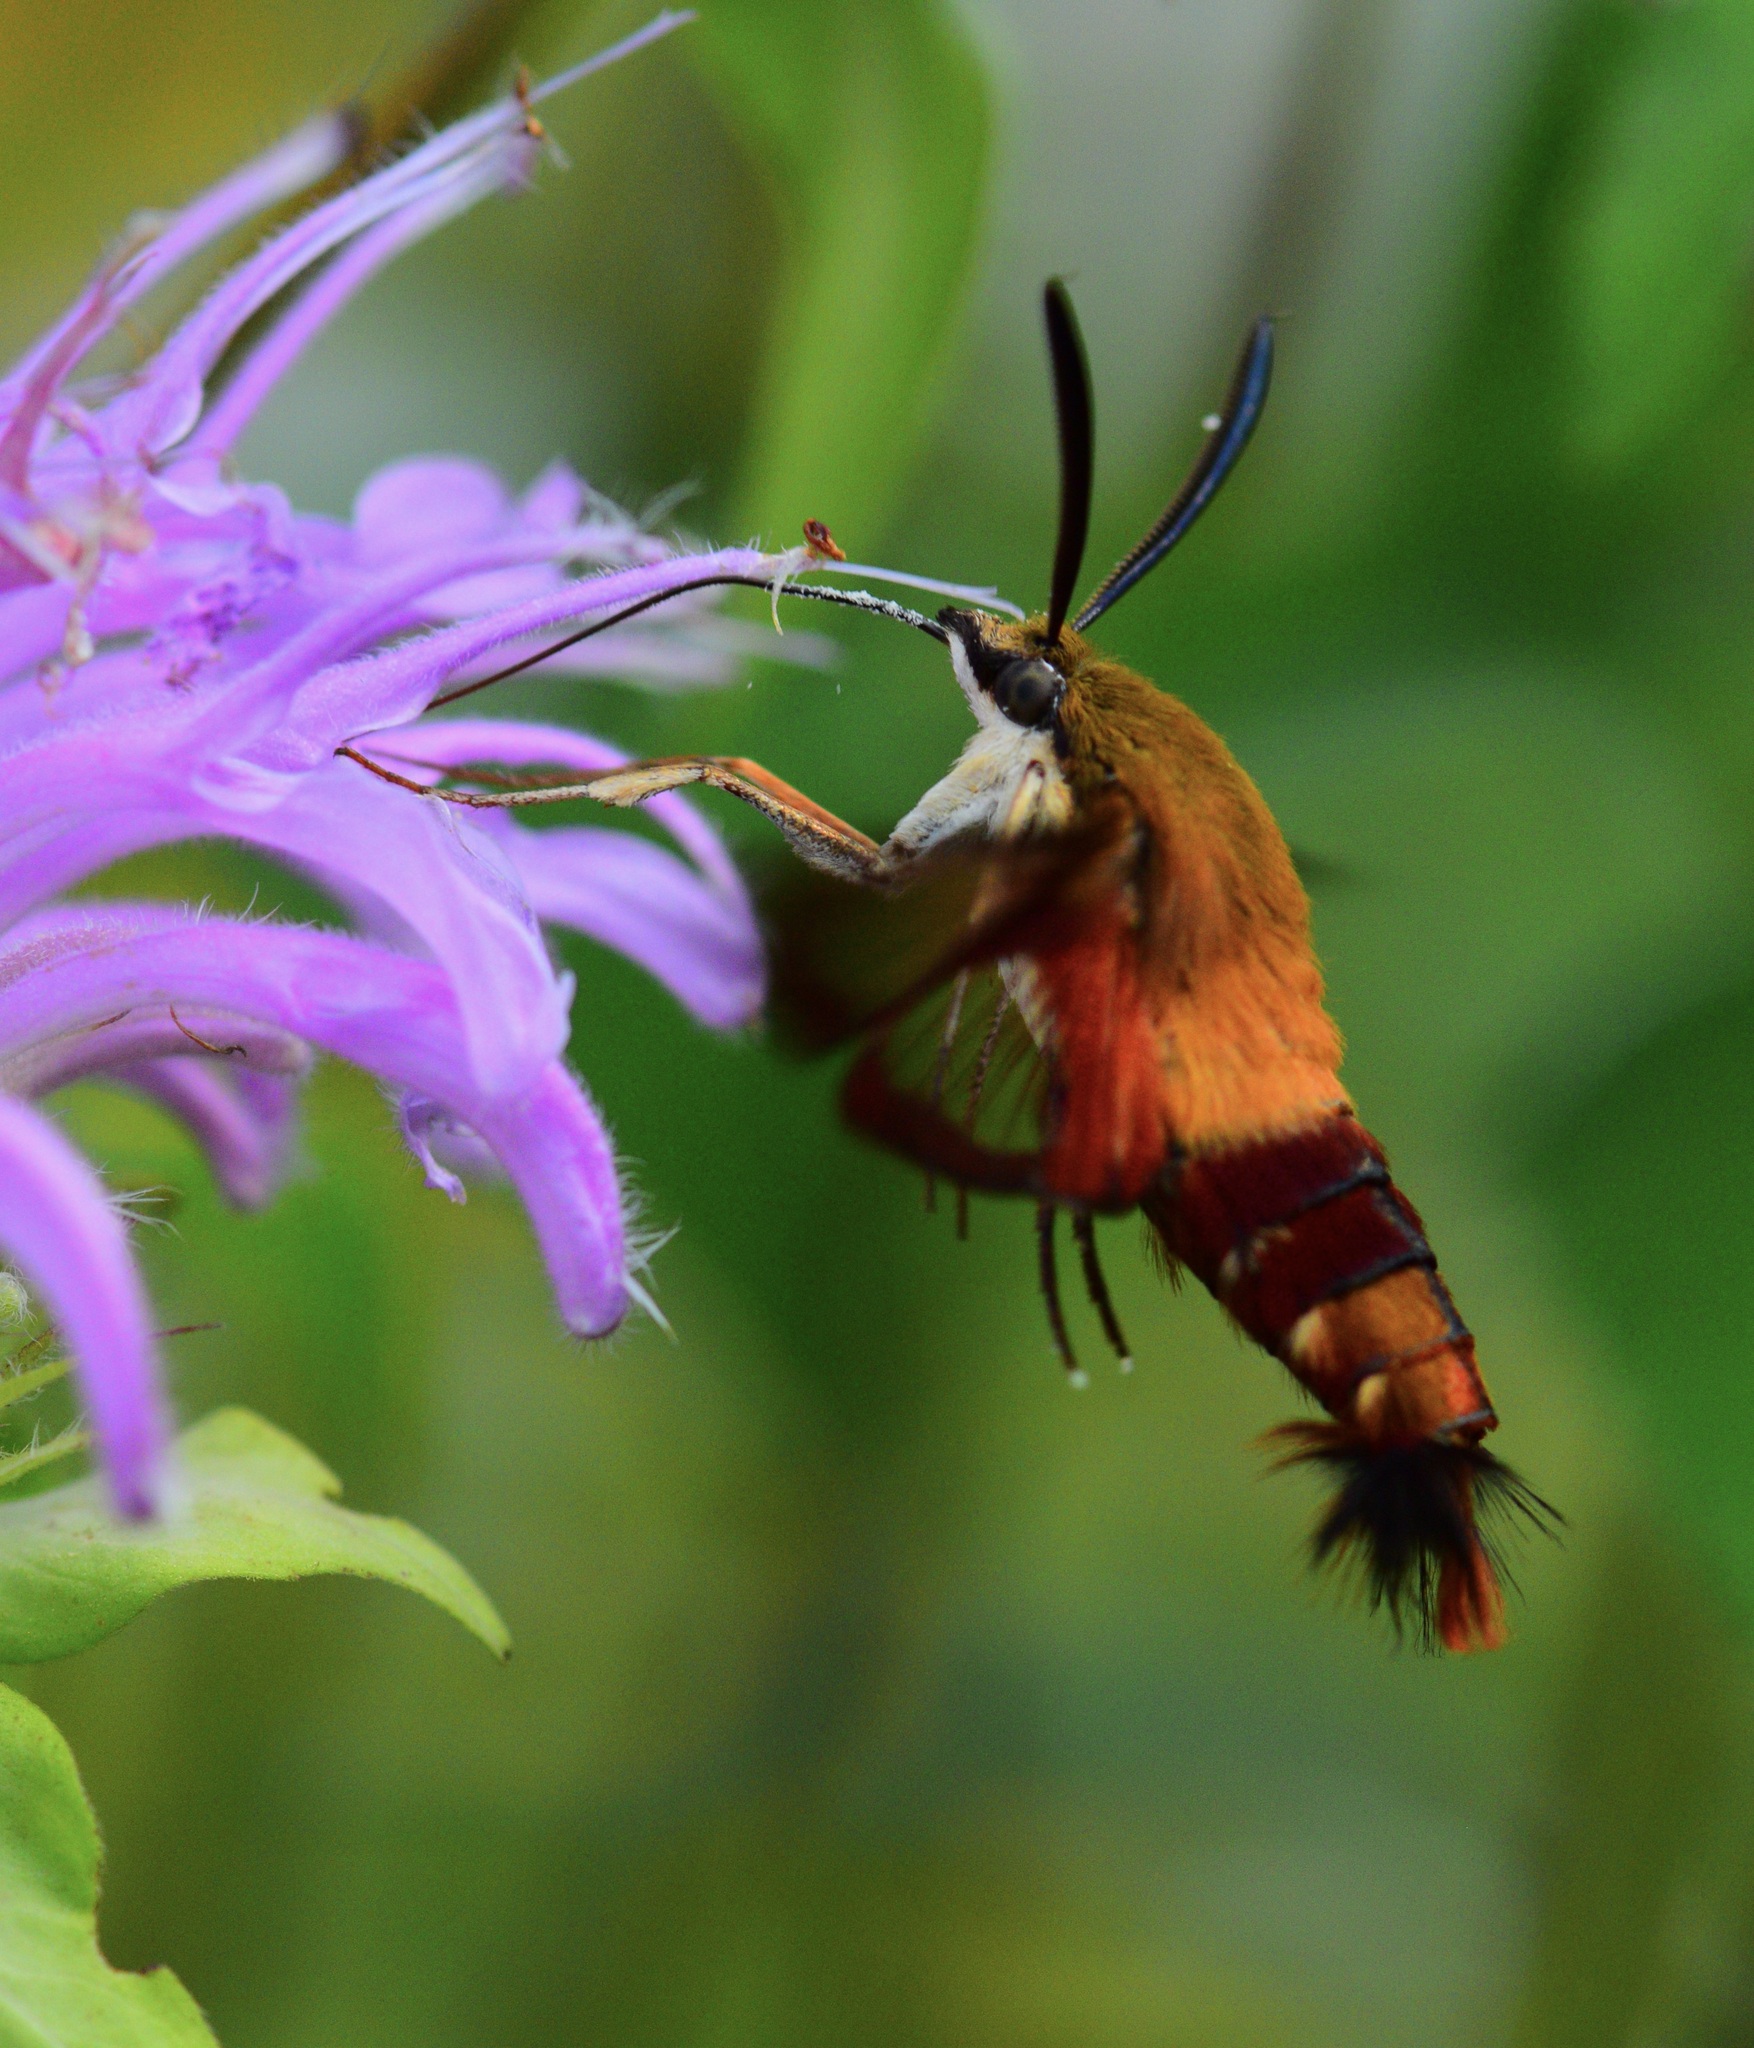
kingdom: Animalia
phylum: Arthropoda
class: Insecta
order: Lepidoptera
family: Sphingidae
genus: Hemaris
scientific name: Hemaris thysbe
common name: Common clear-wing
